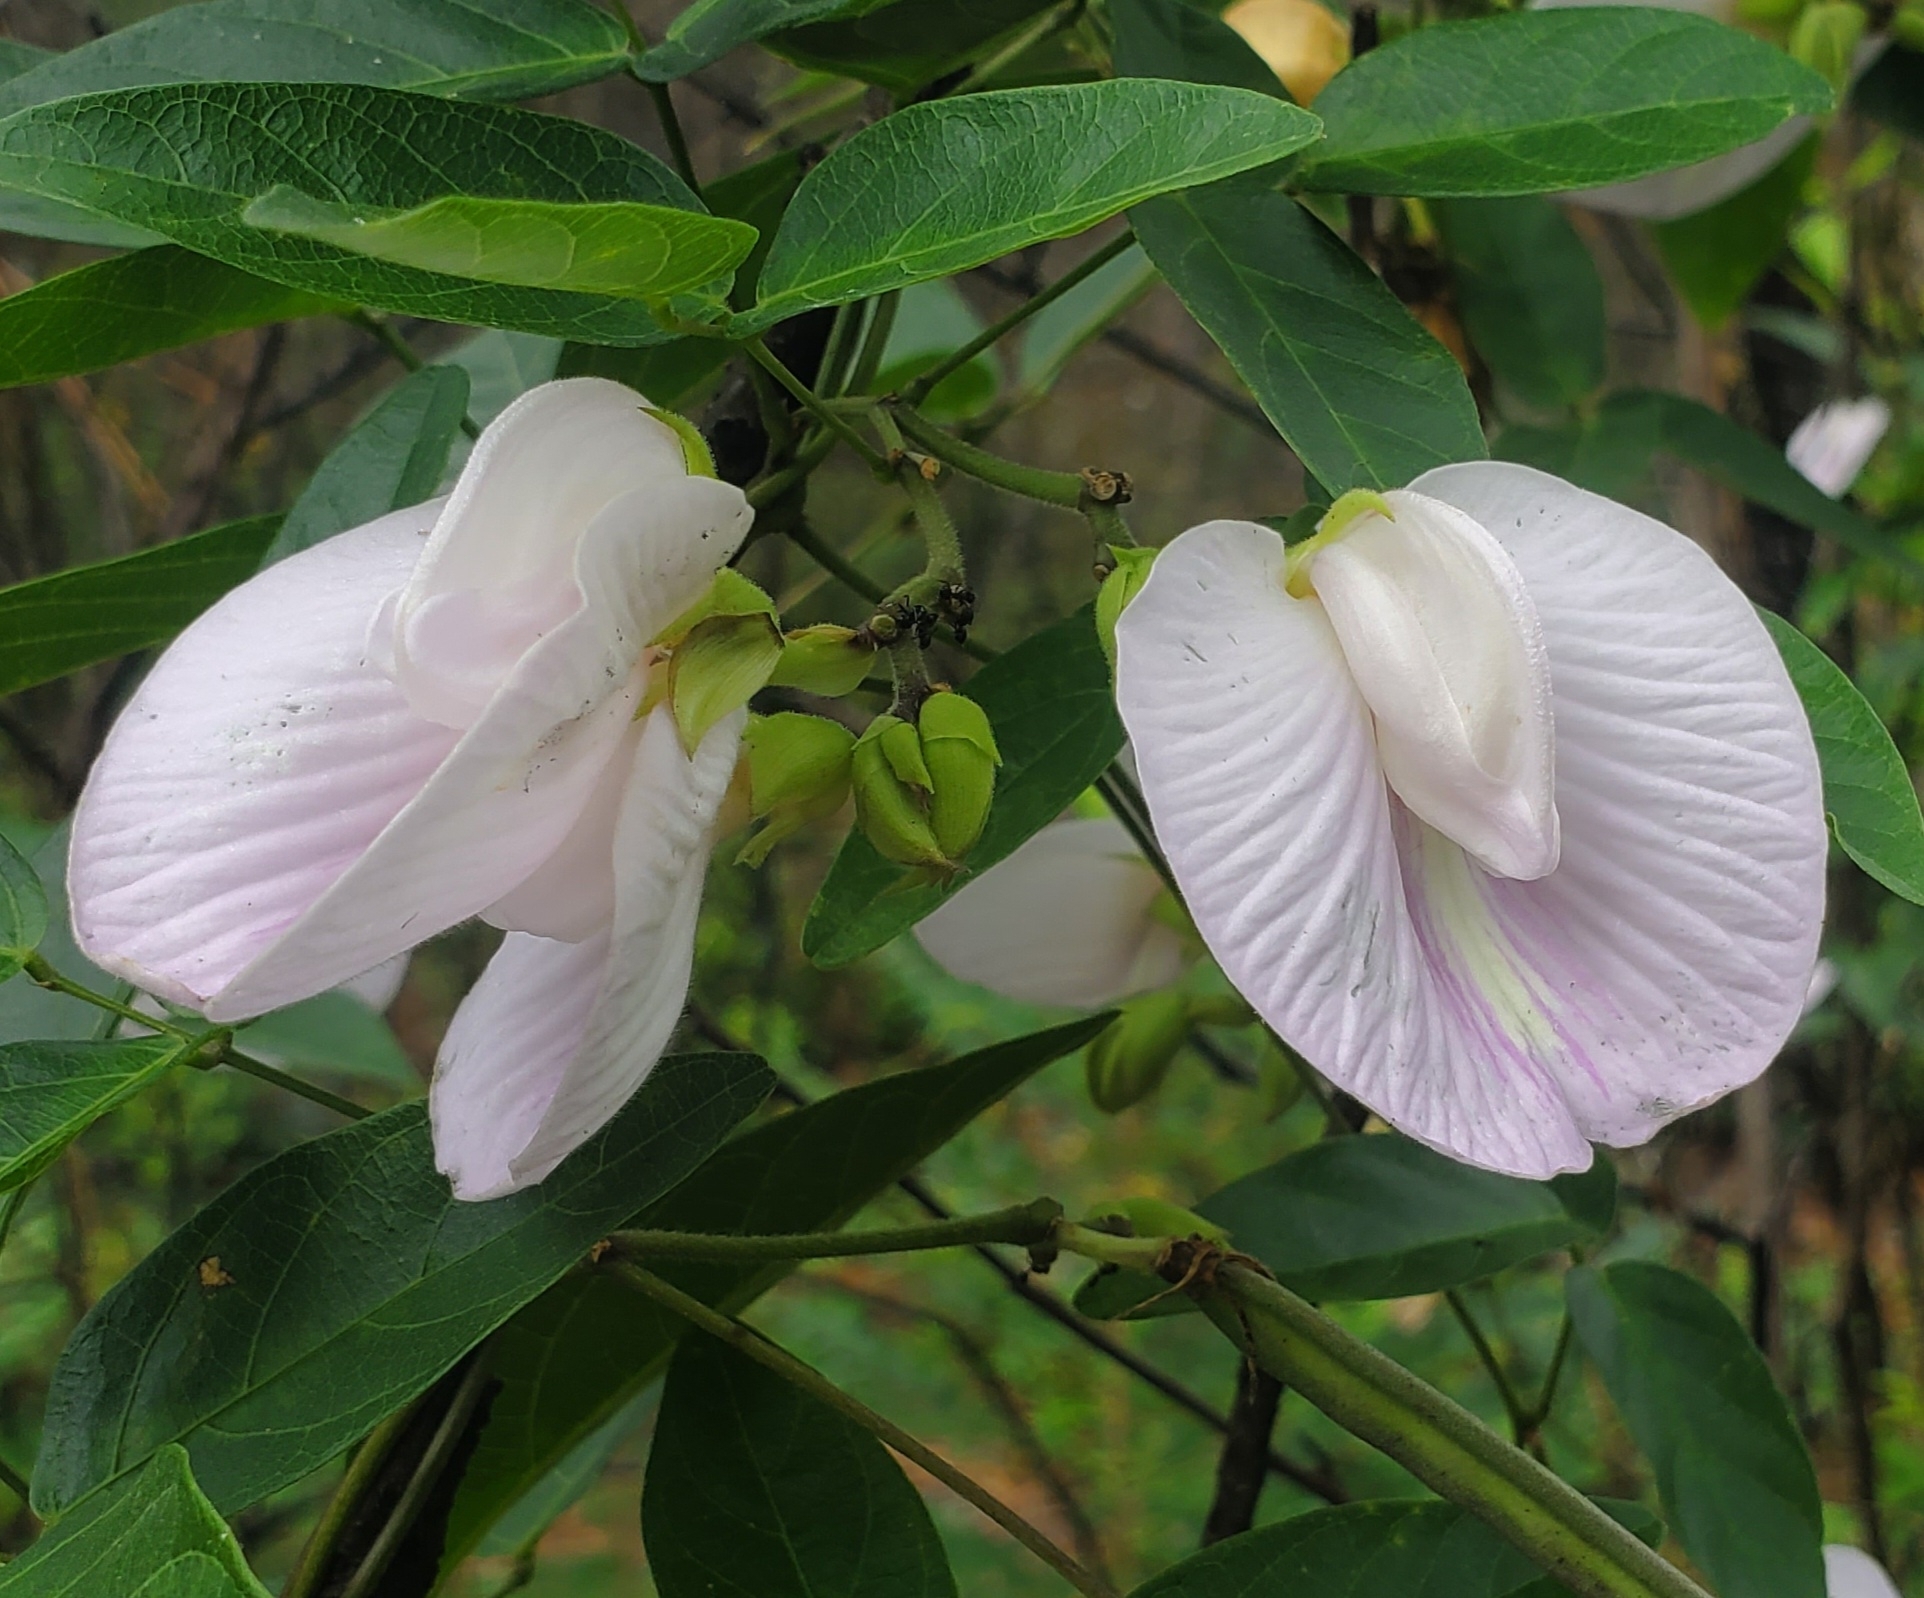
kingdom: Plantae
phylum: Tracheophyta
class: Magnoliopsida
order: Fabales
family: Fabaceae
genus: Centrosema
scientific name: Centrosema arenicola
